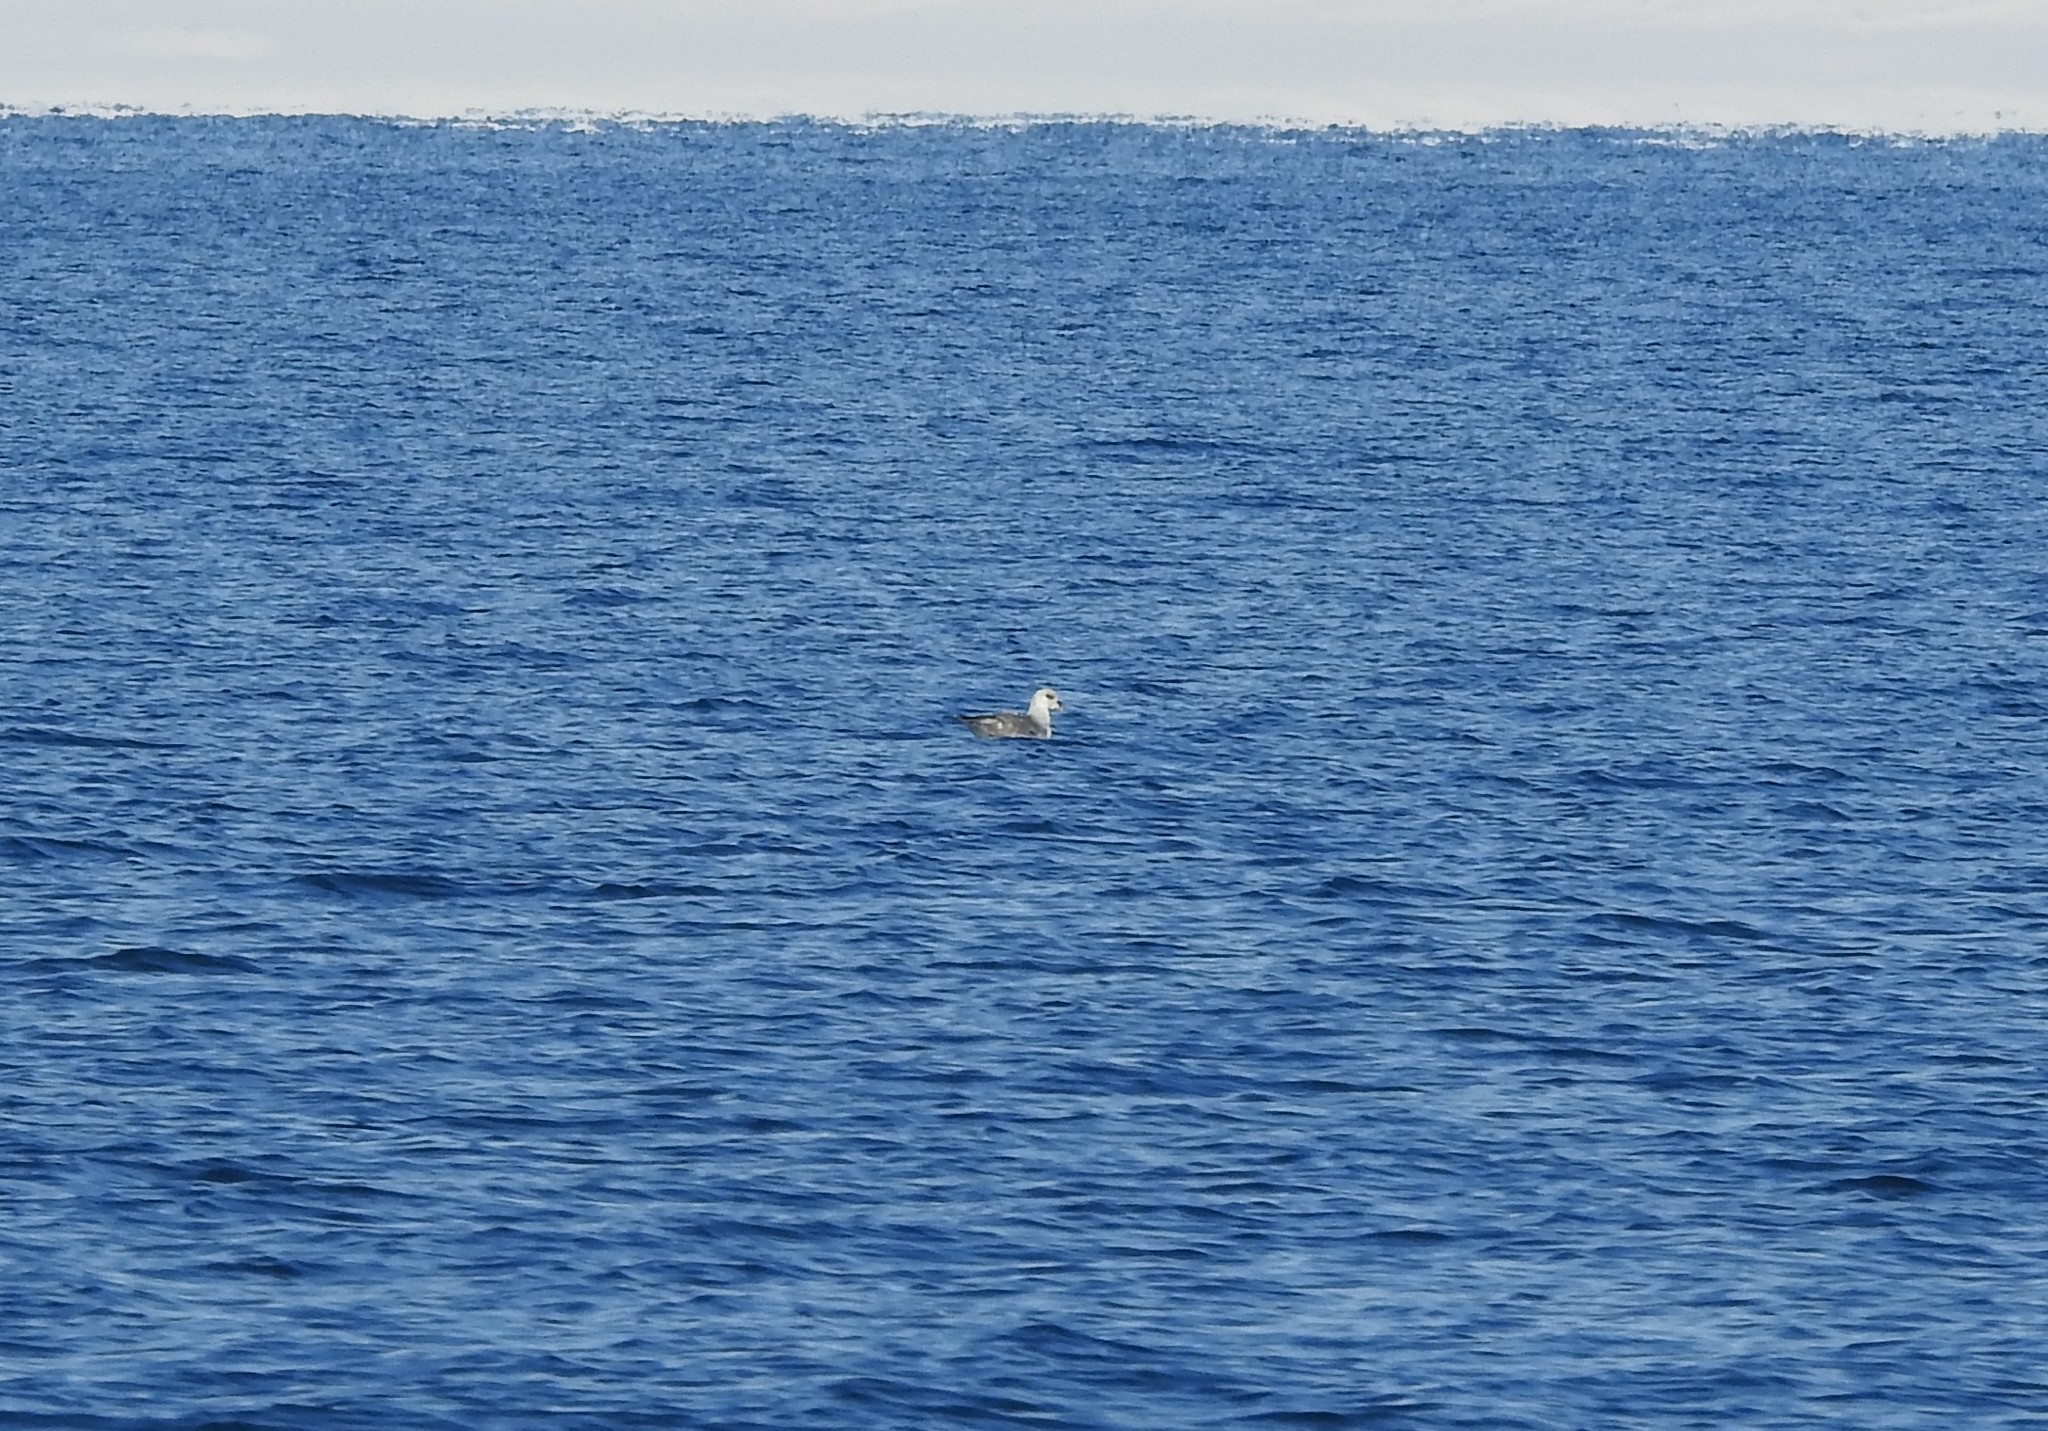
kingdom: Animalia
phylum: Chordata
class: Aves
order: Procellariiformes
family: Procellariidae
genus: Fulmarus
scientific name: Fulmarus glacialis
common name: Northern fulmar
